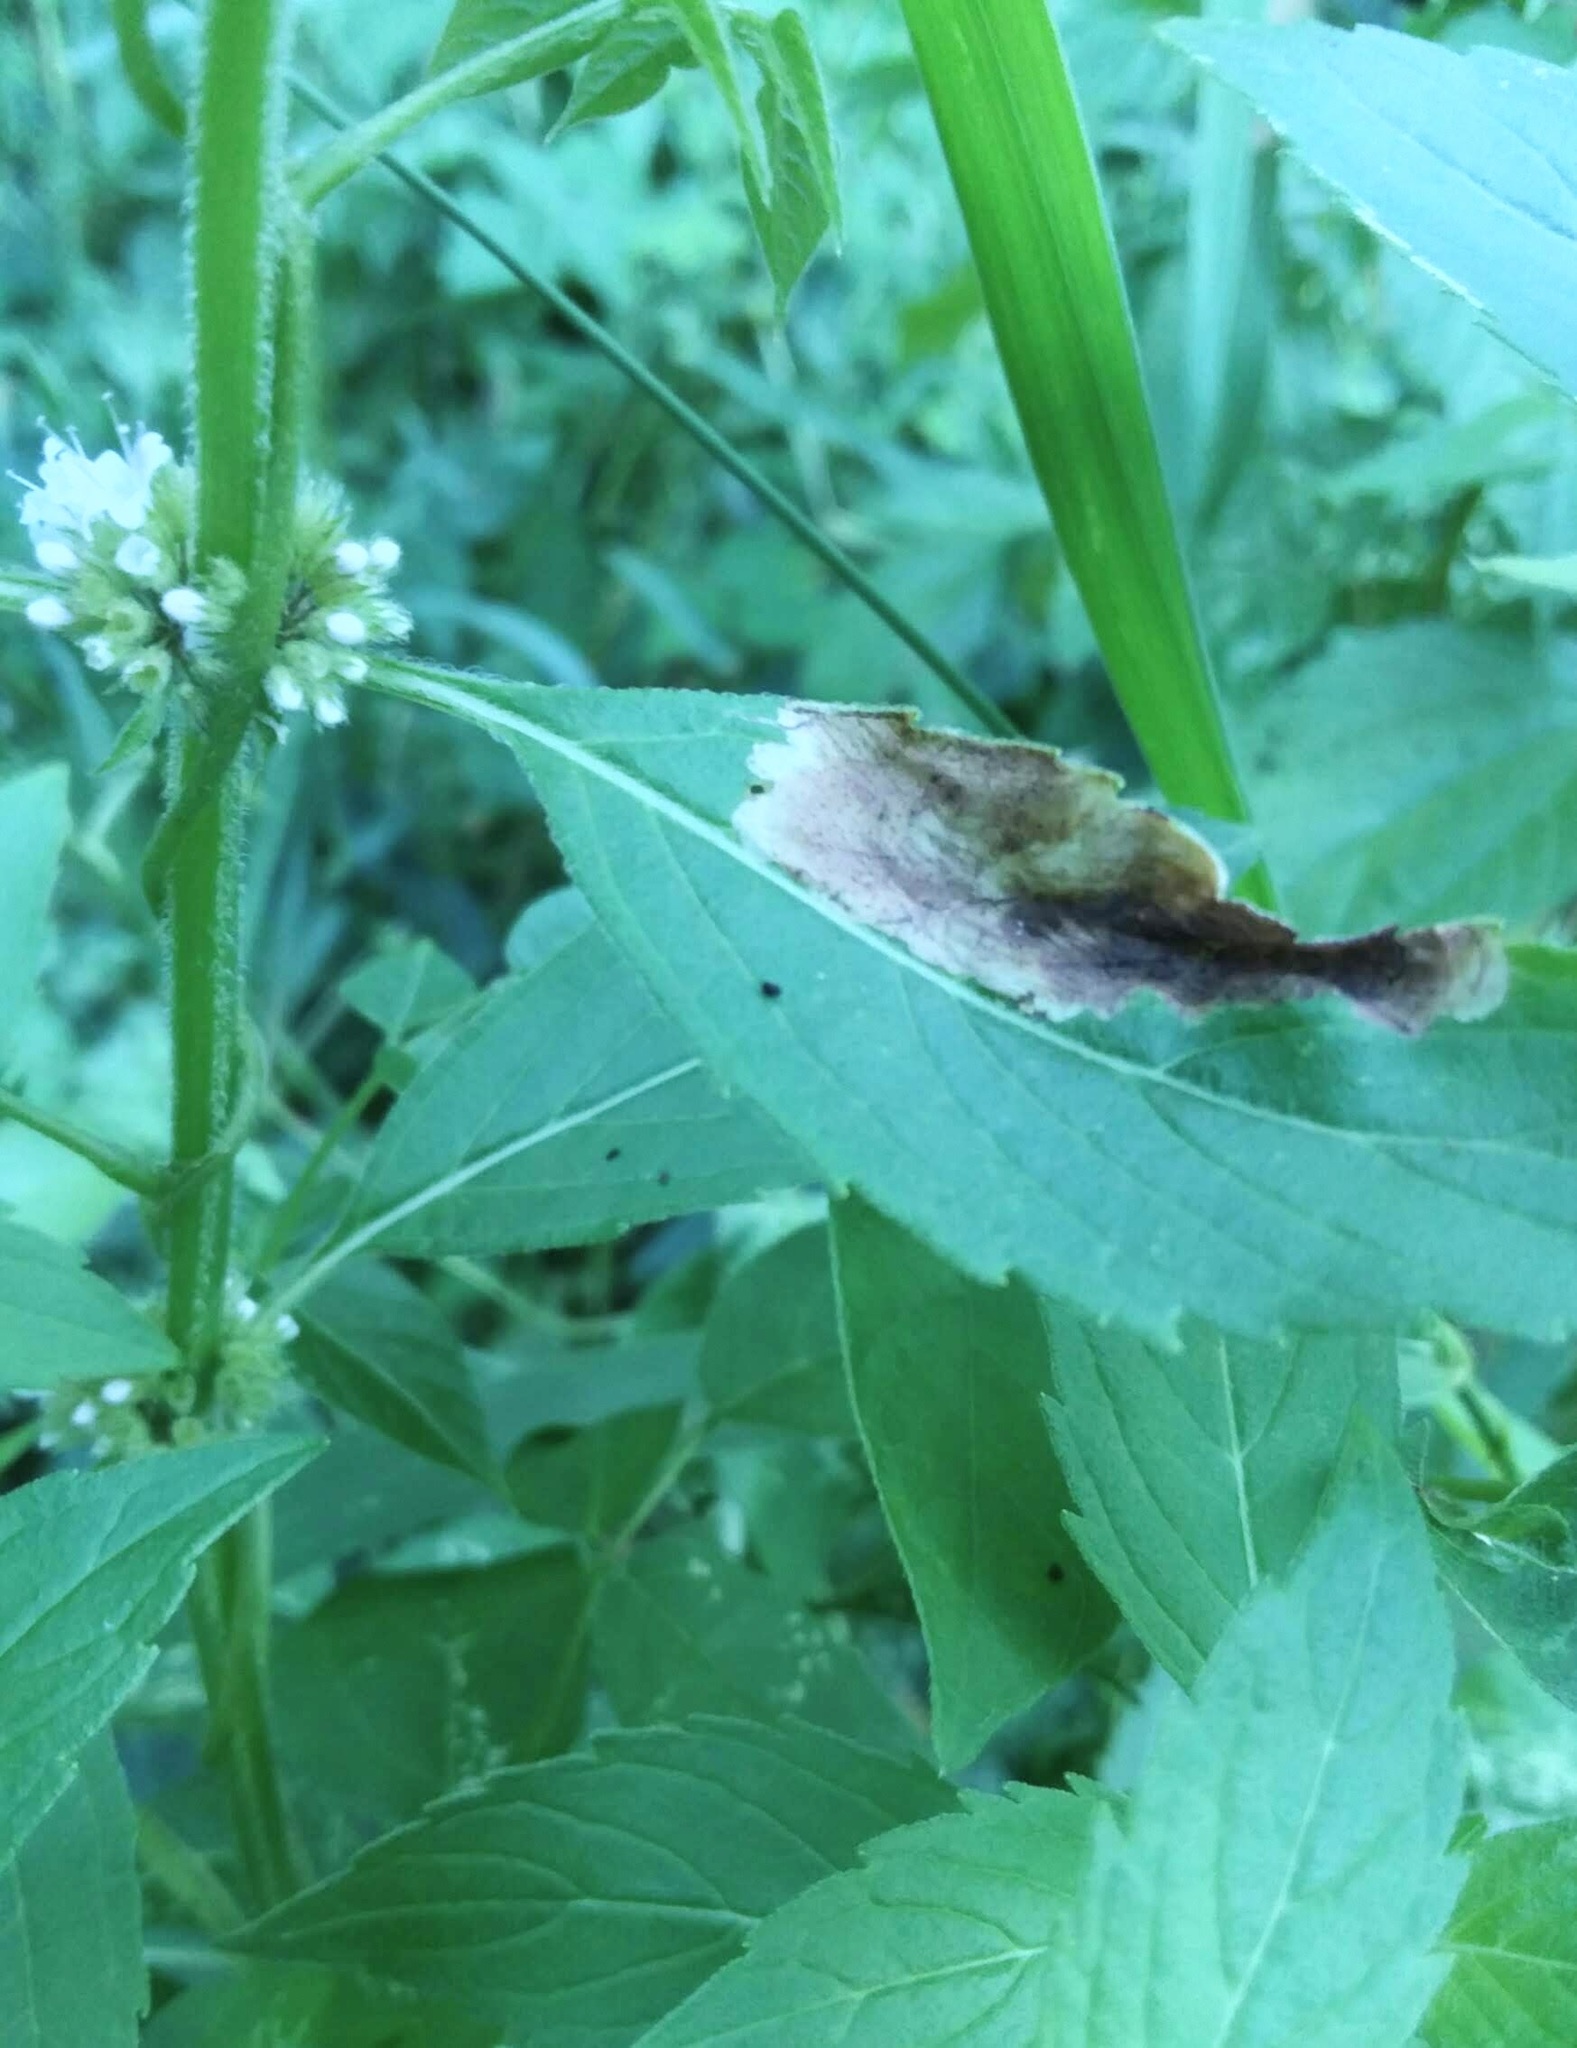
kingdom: Animalia
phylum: Arthropoda
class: Insecta
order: Diptera
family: Agromyzidae
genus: Calycomyza
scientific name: Calycomyza menthae
